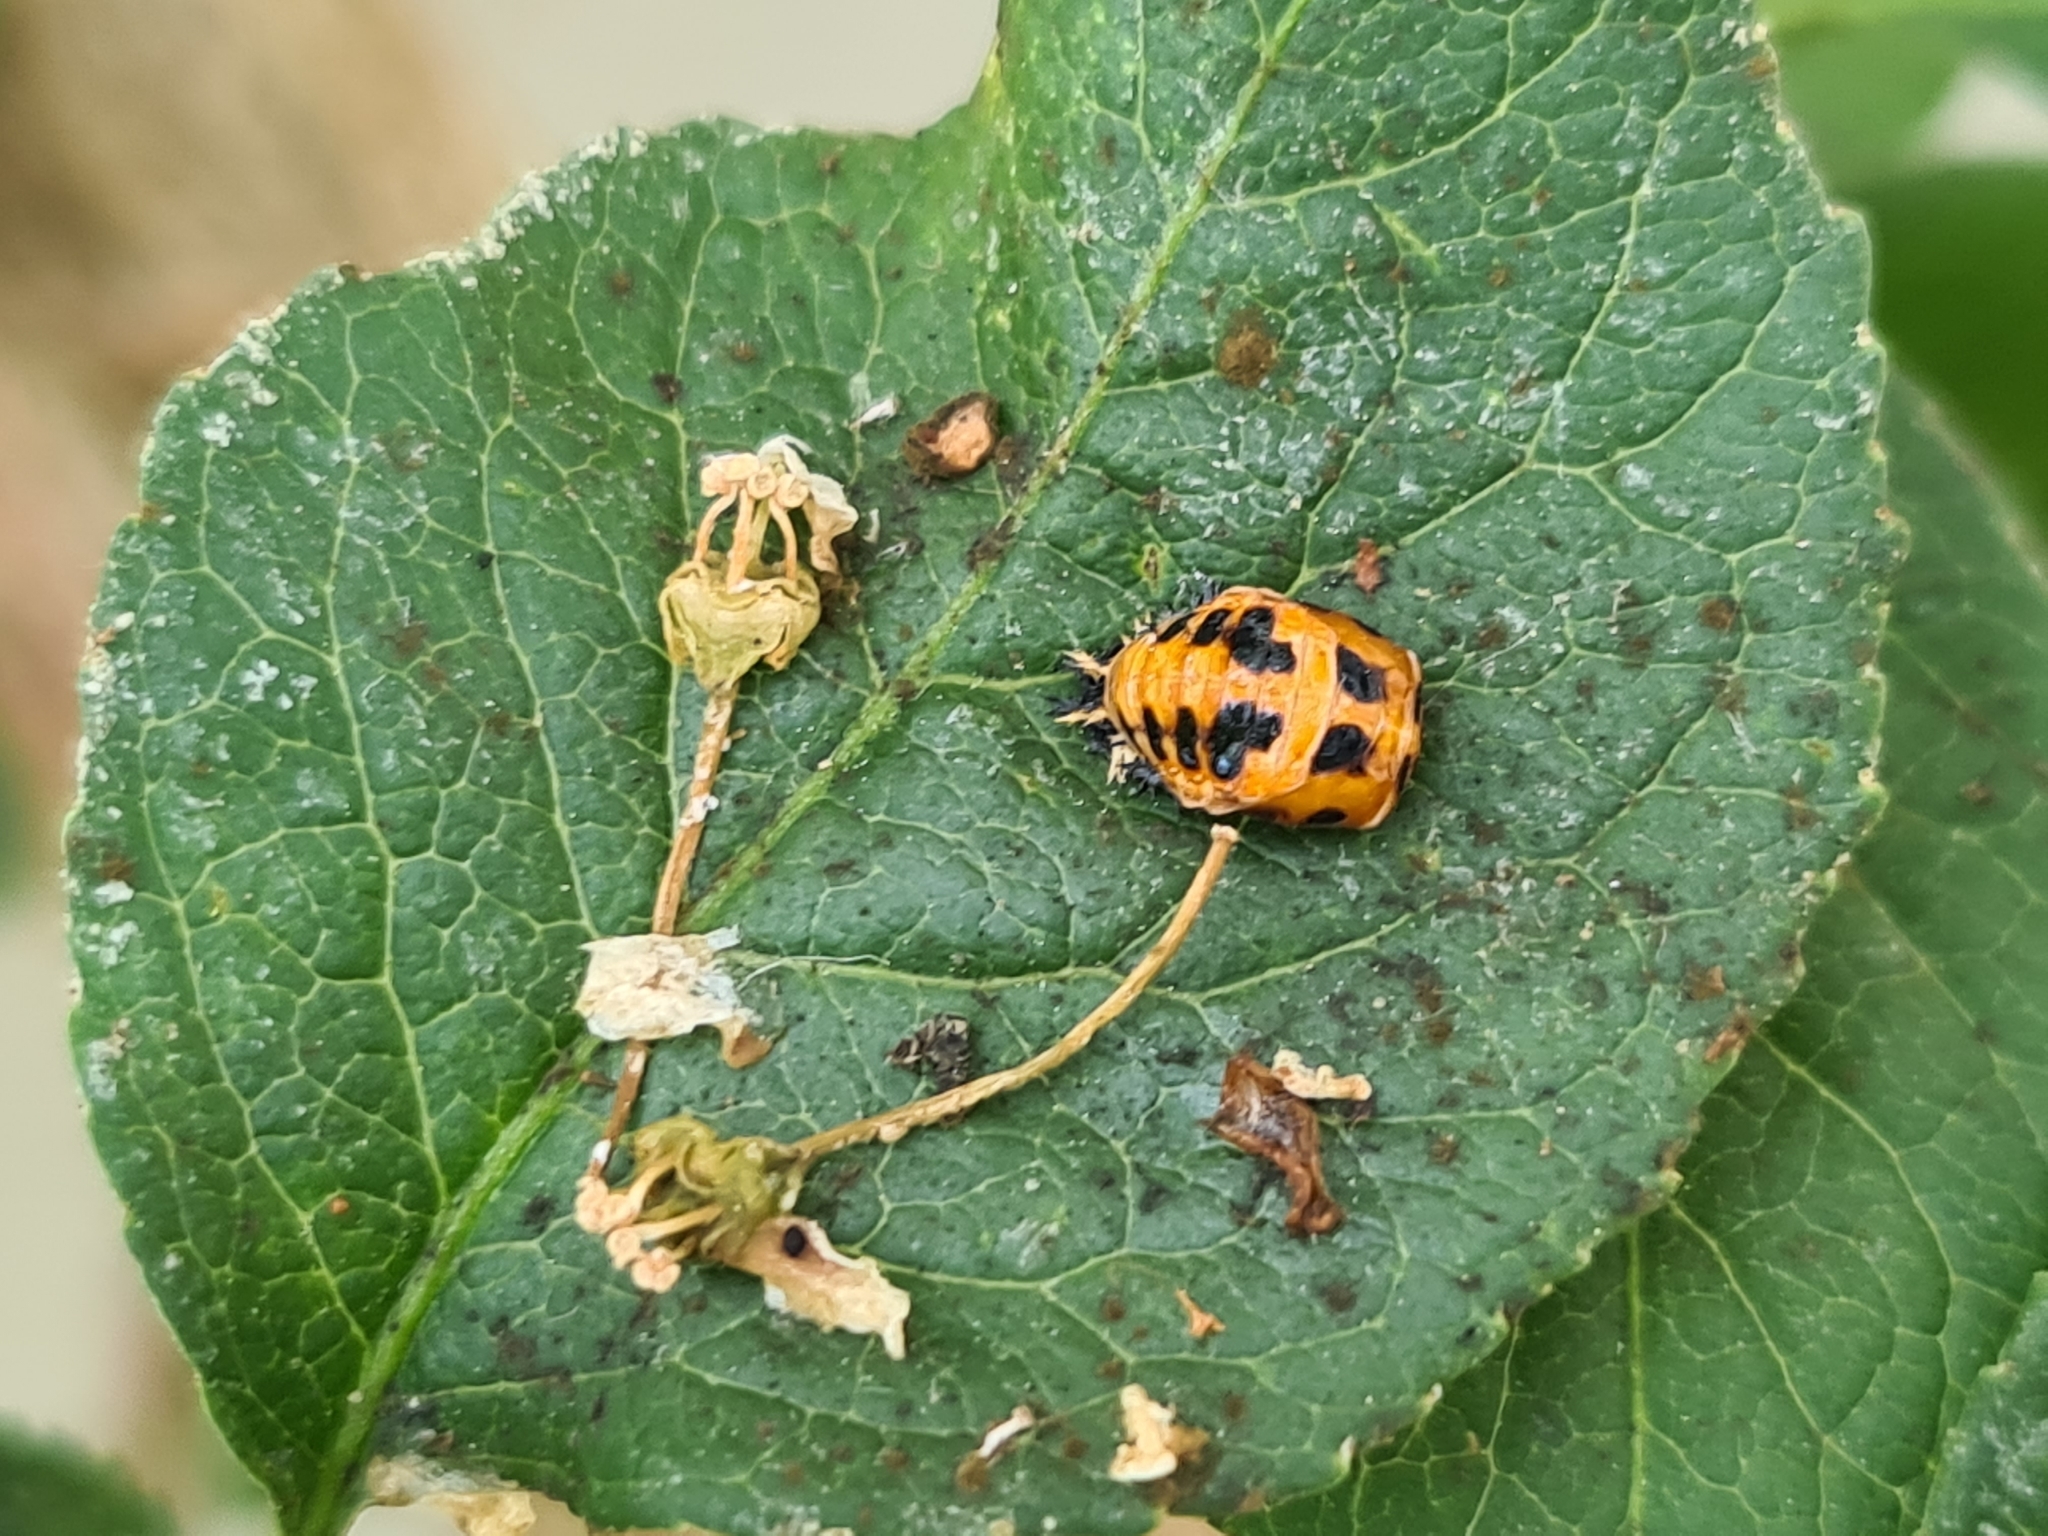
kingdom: Animalia
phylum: Arthropoda
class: Insecta
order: Coleoptera
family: Coccinellidae
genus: Harmonia
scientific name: Harmonia axyridis
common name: Harlequin ladybird
